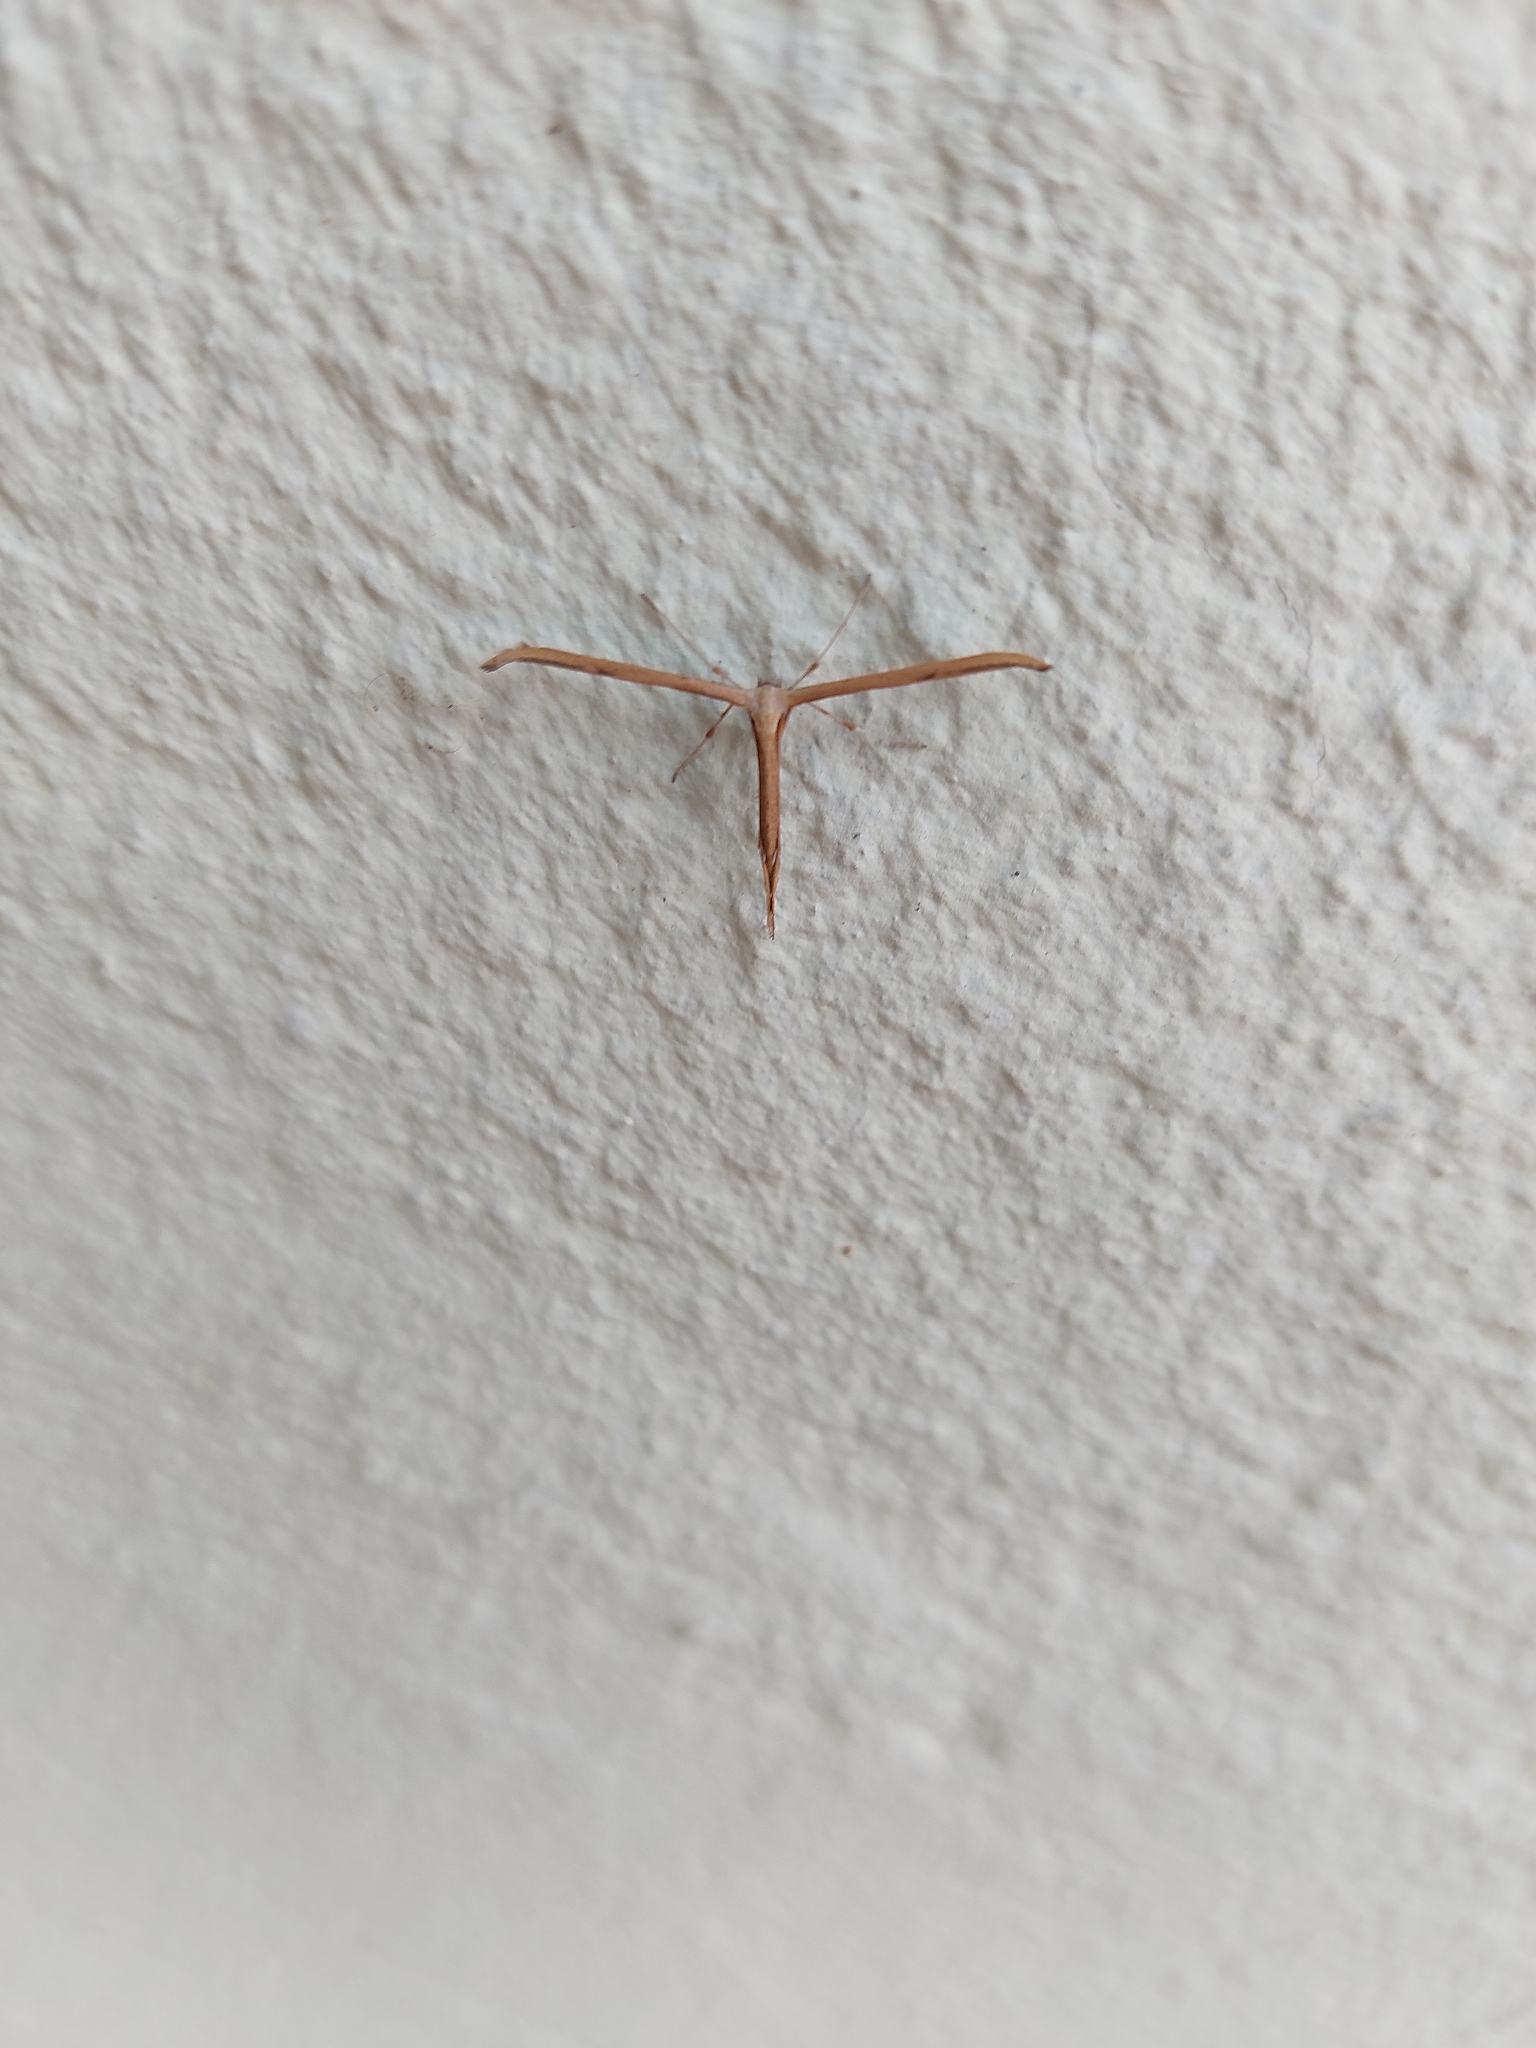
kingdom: Animalia
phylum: Arthropoda
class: Insecta
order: Lepidoptera
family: Pterophoridae
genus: Emmelina
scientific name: Emmelina monodactyla
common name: Common plume
